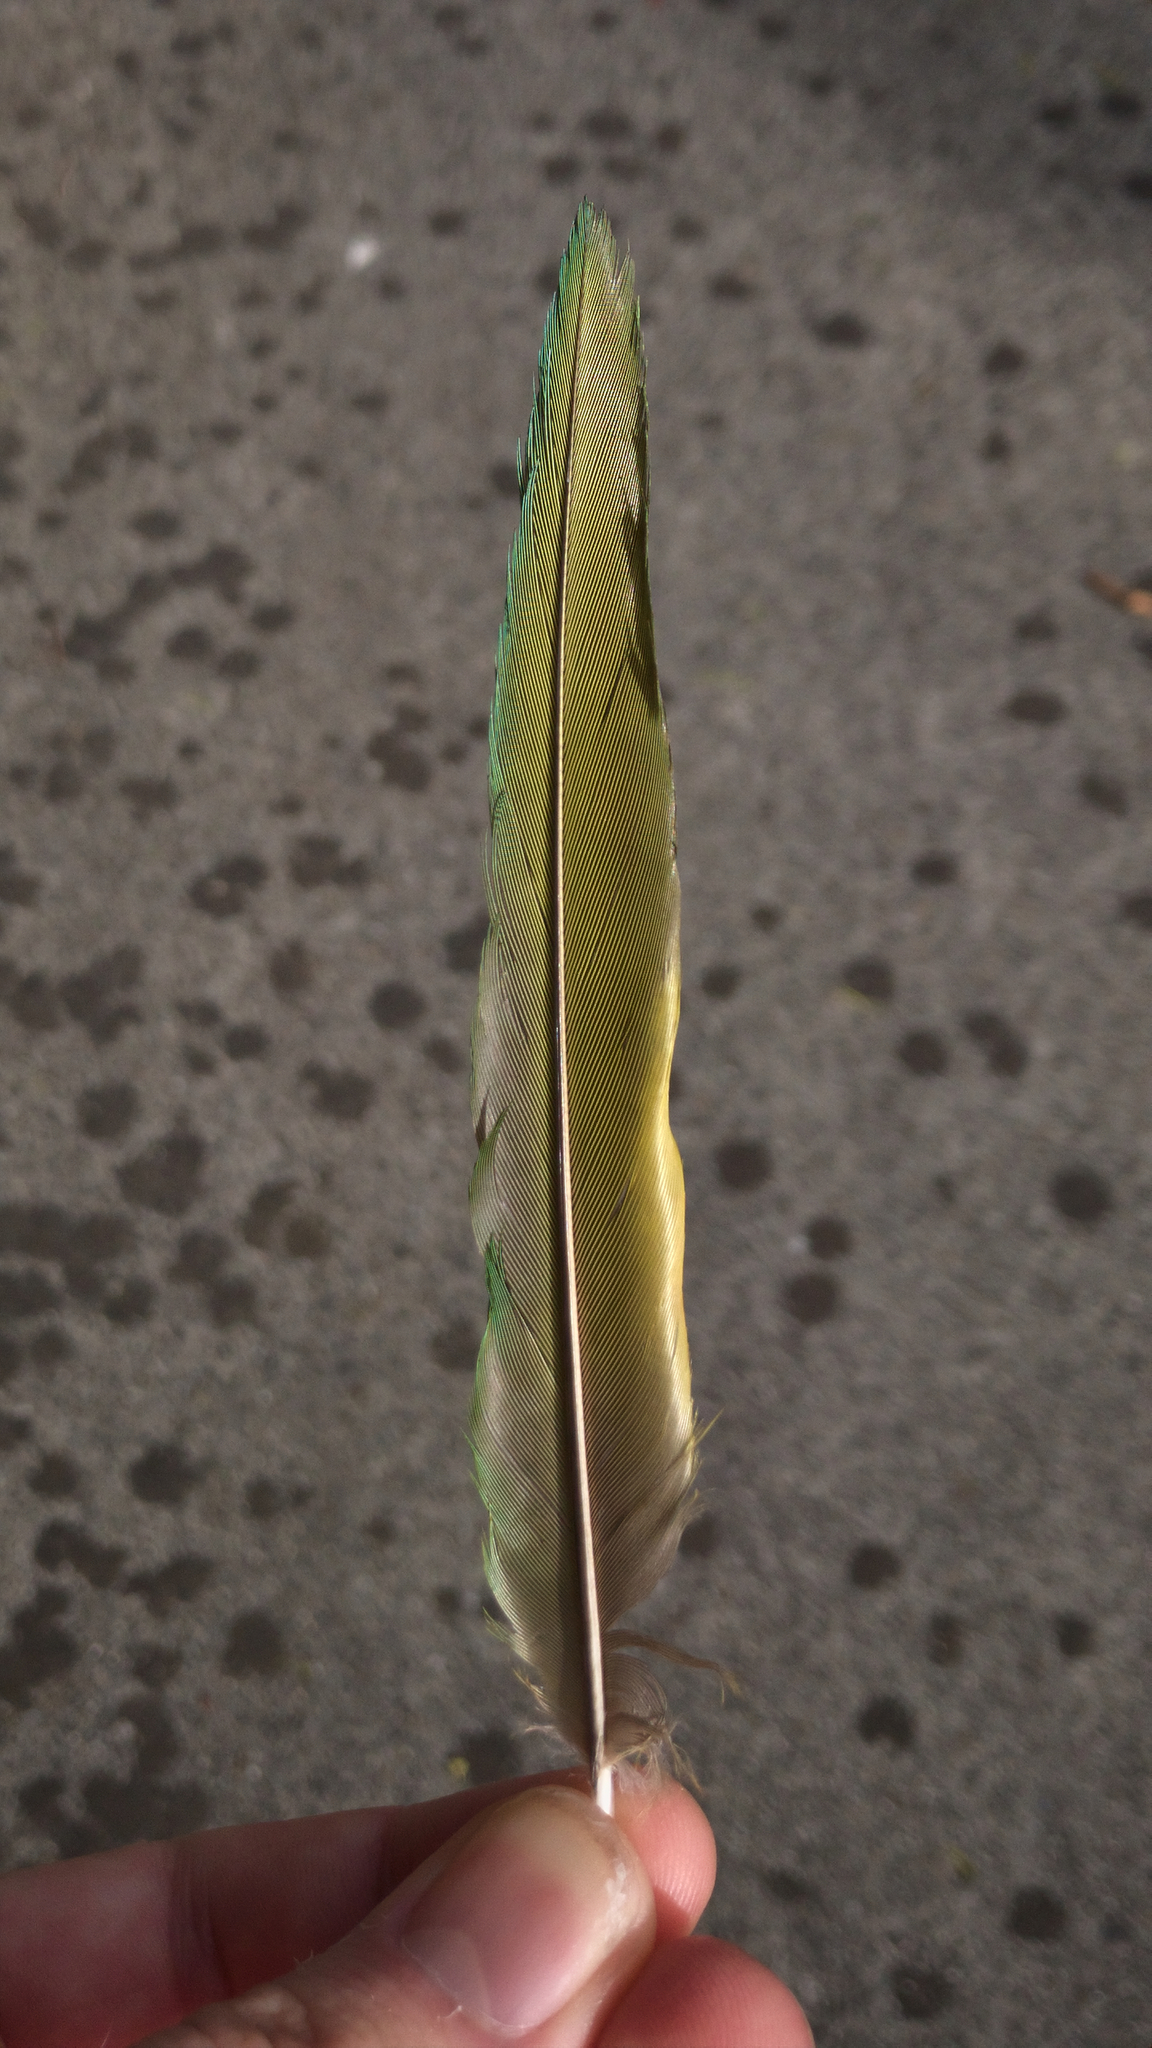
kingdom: Animalia
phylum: Chordata
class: Aves
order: Psittaciformes
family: Psittacidae
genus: Trichoglossus
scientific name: Trichoglossus haematodus
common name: Coconut lorikeet
